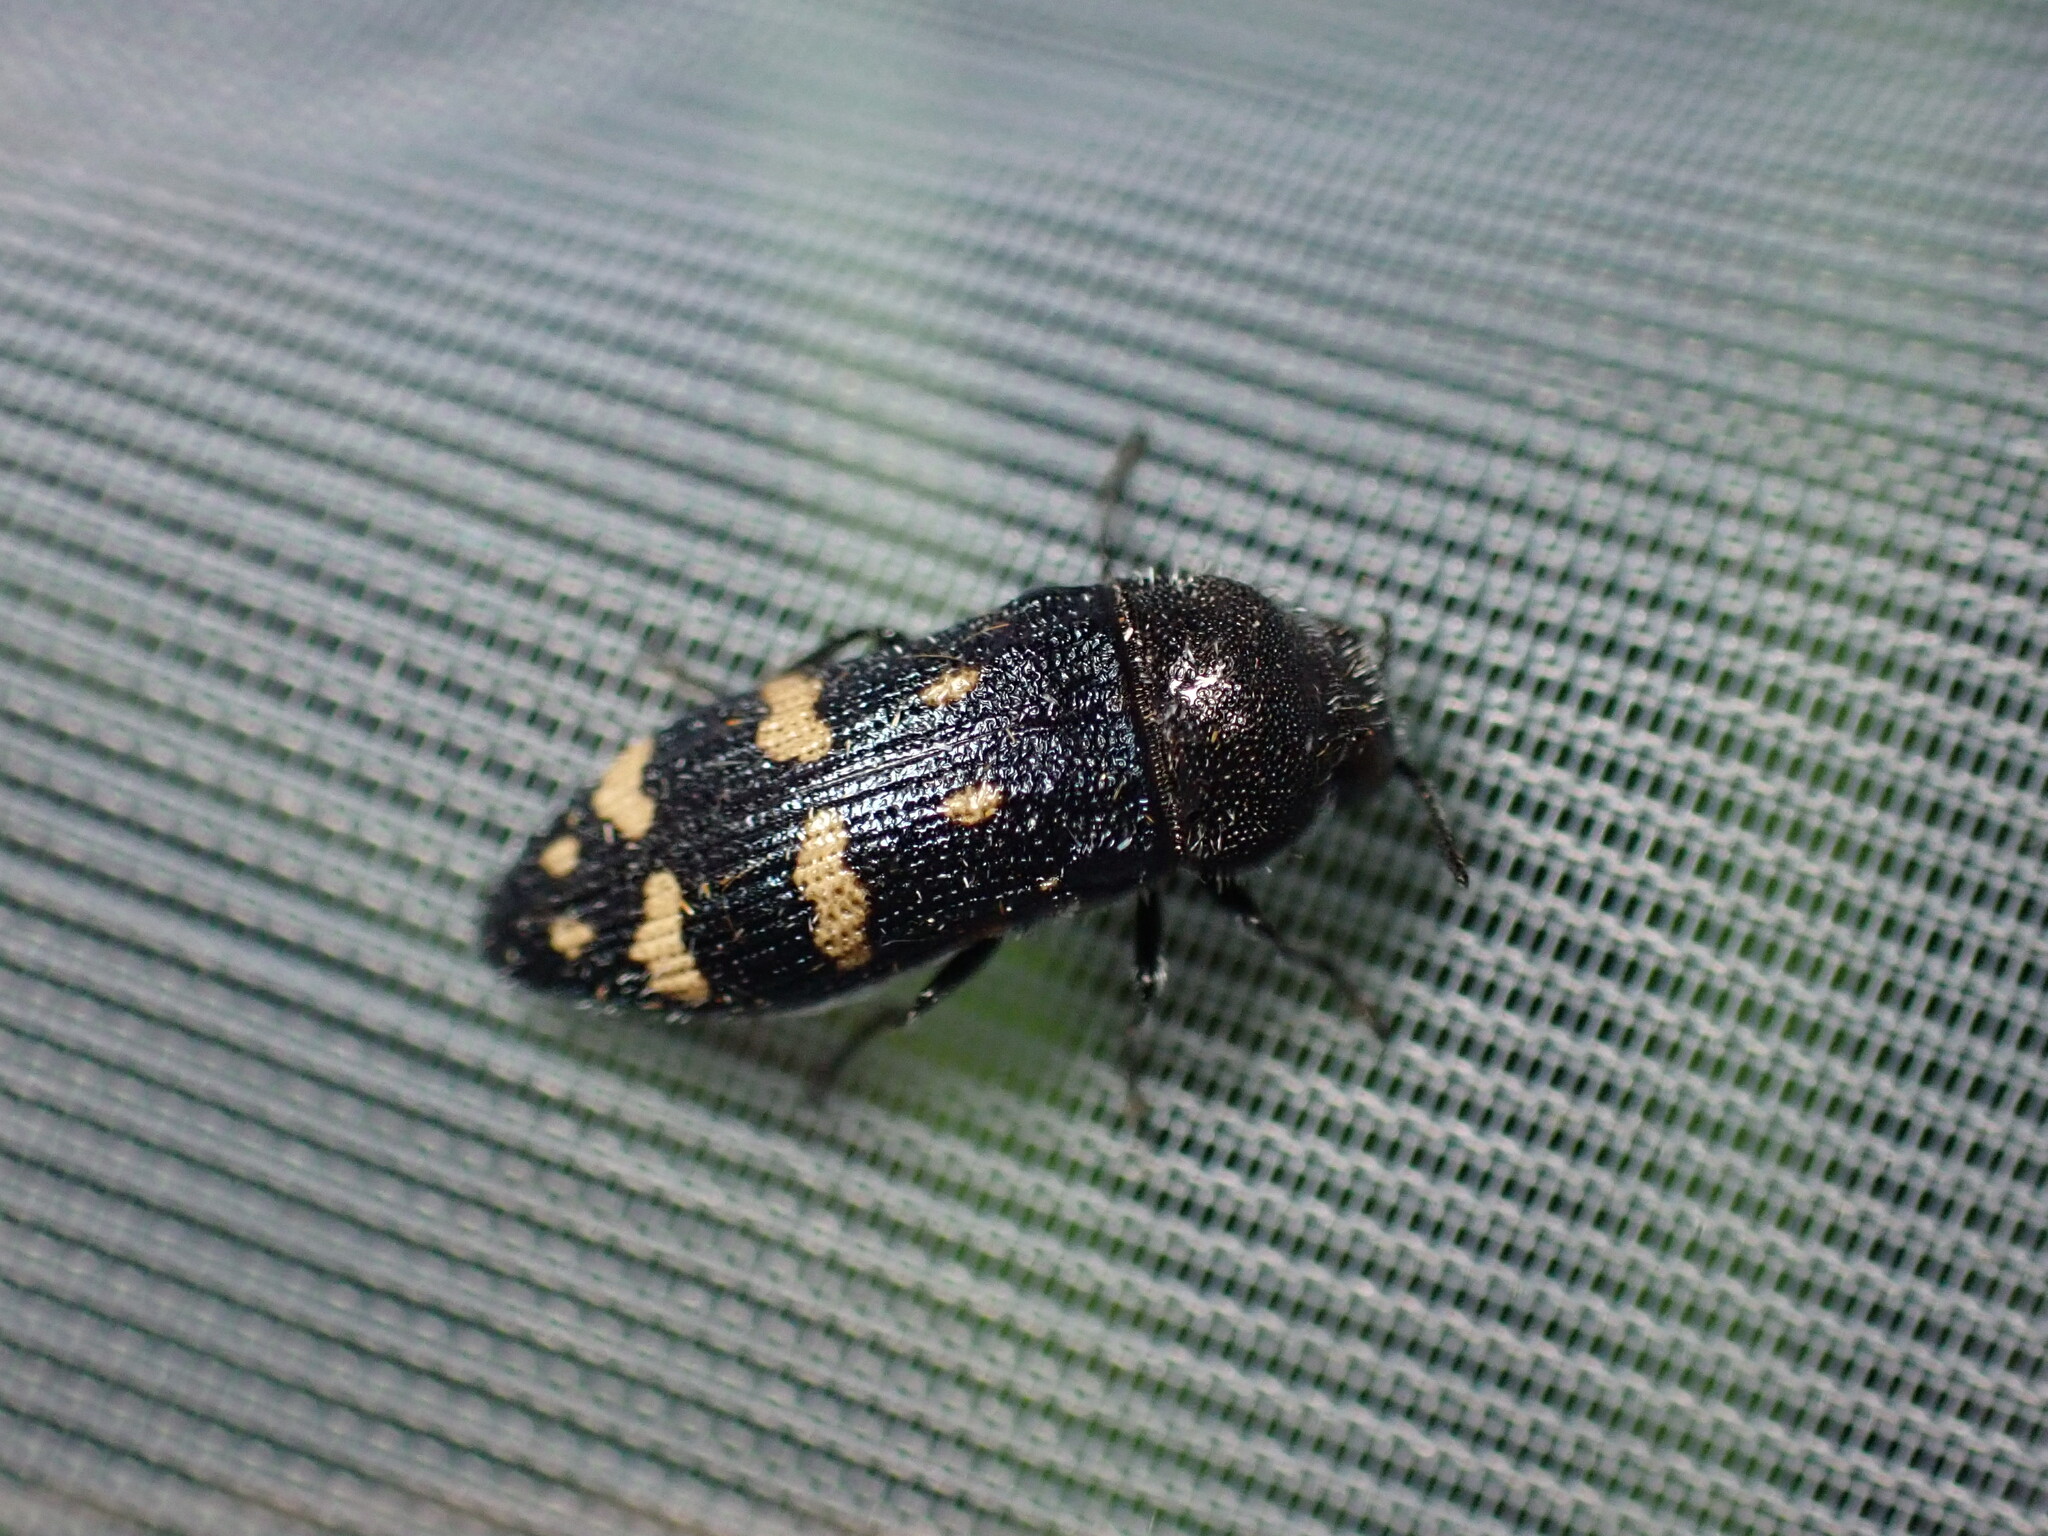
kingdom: Animalia
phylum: Arthropoda
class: Insecta
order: Coleoptera
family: Buprestidae
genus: Acmaeoderella
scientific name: Acmaeoderella flavofasciata
